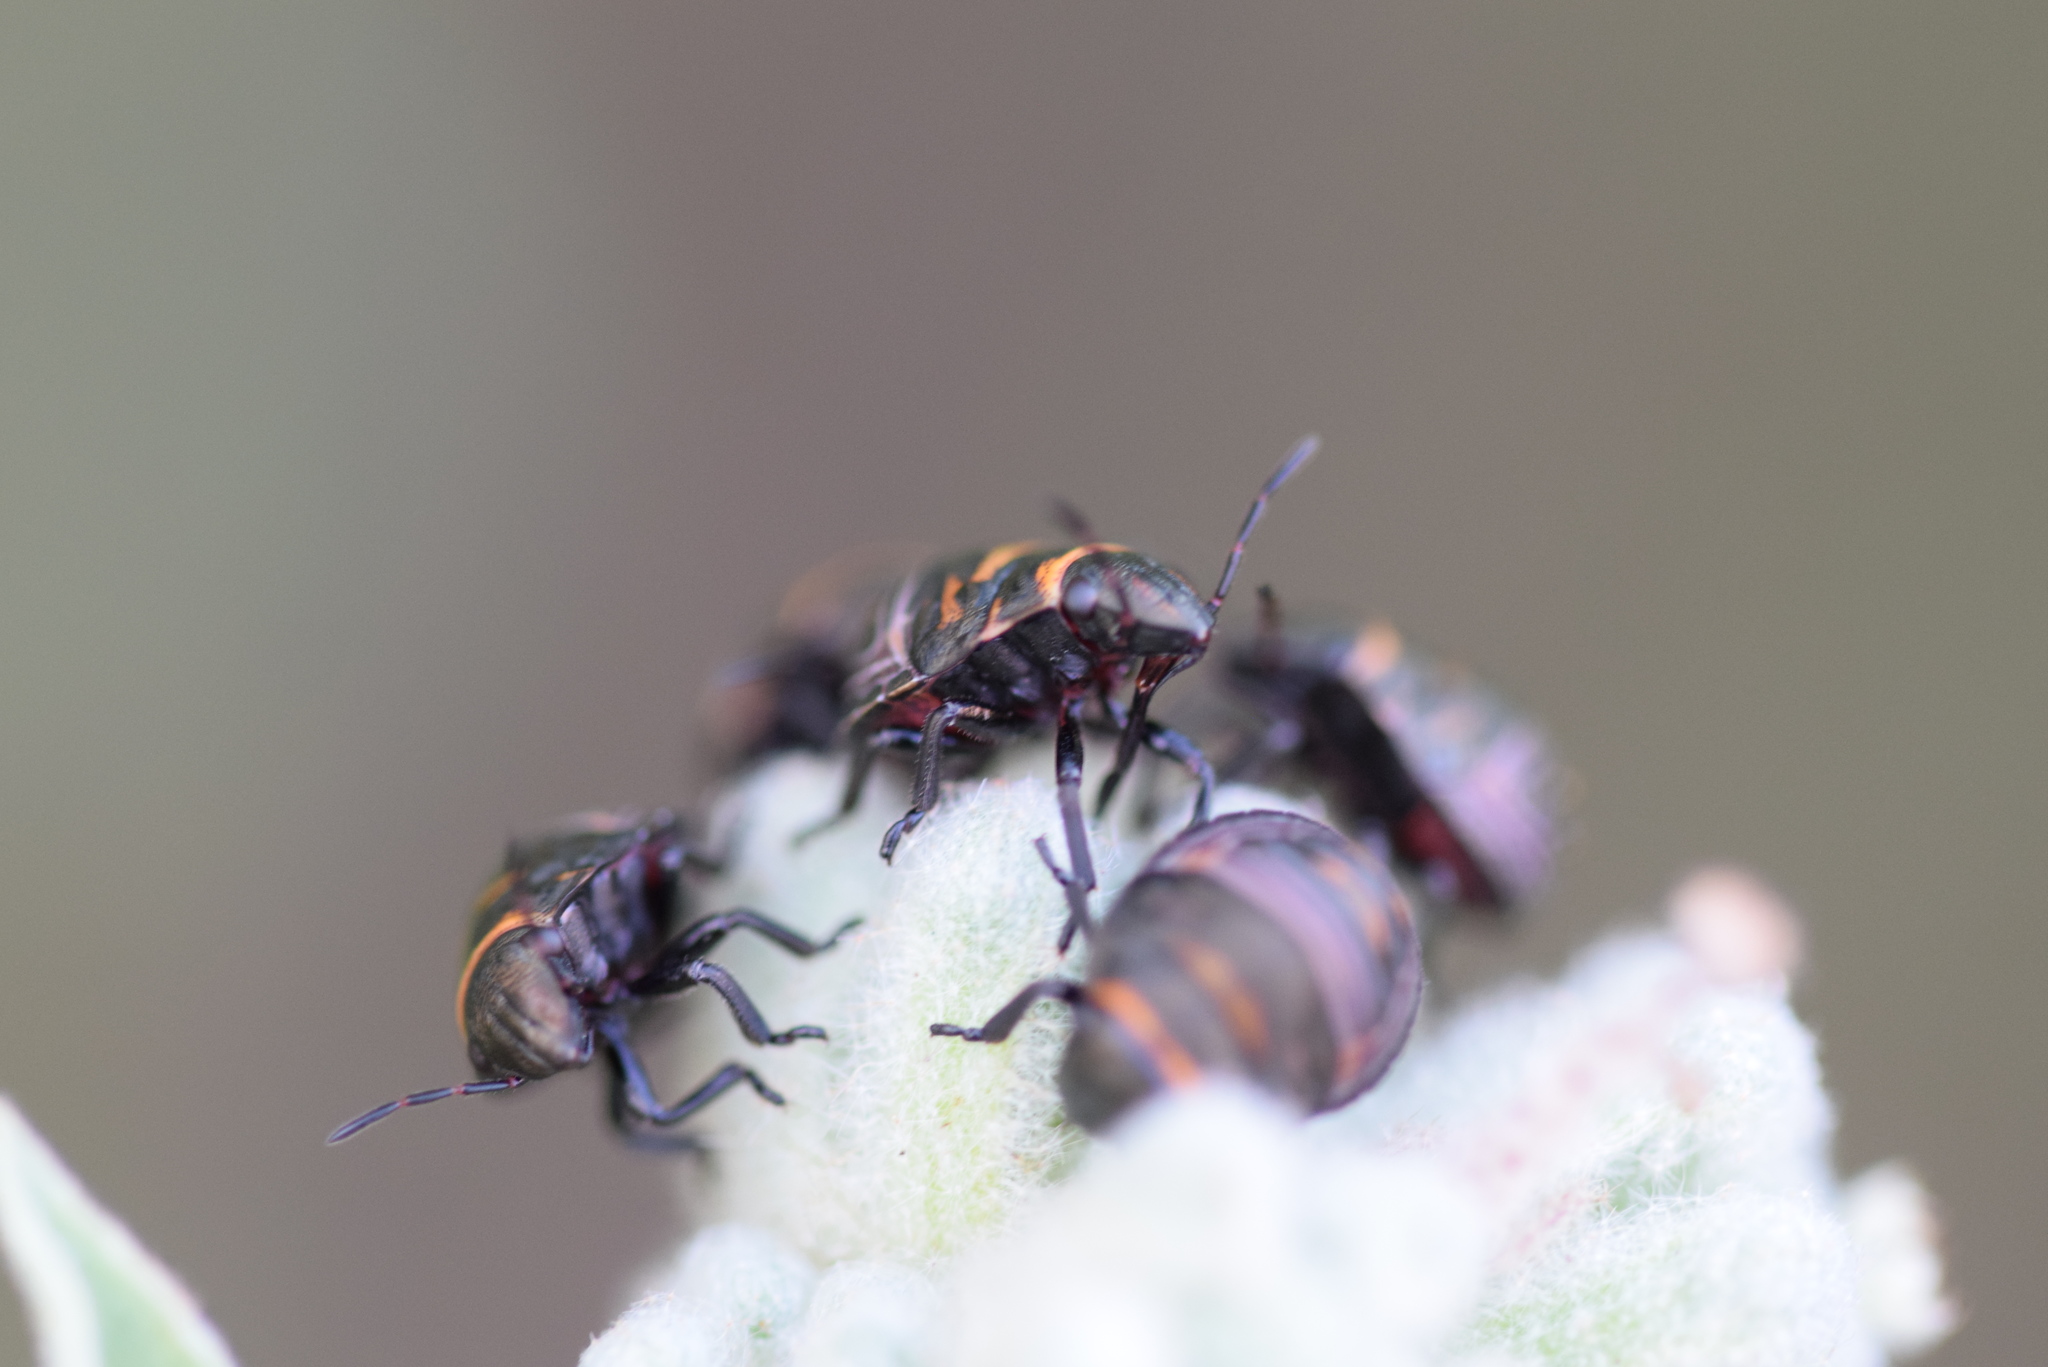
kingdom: Animalia
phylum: Arthropoda
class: Insecta
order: Hemiptera
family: Scutelleridae
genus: Orsilochides
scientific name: Orsilochides guttata
